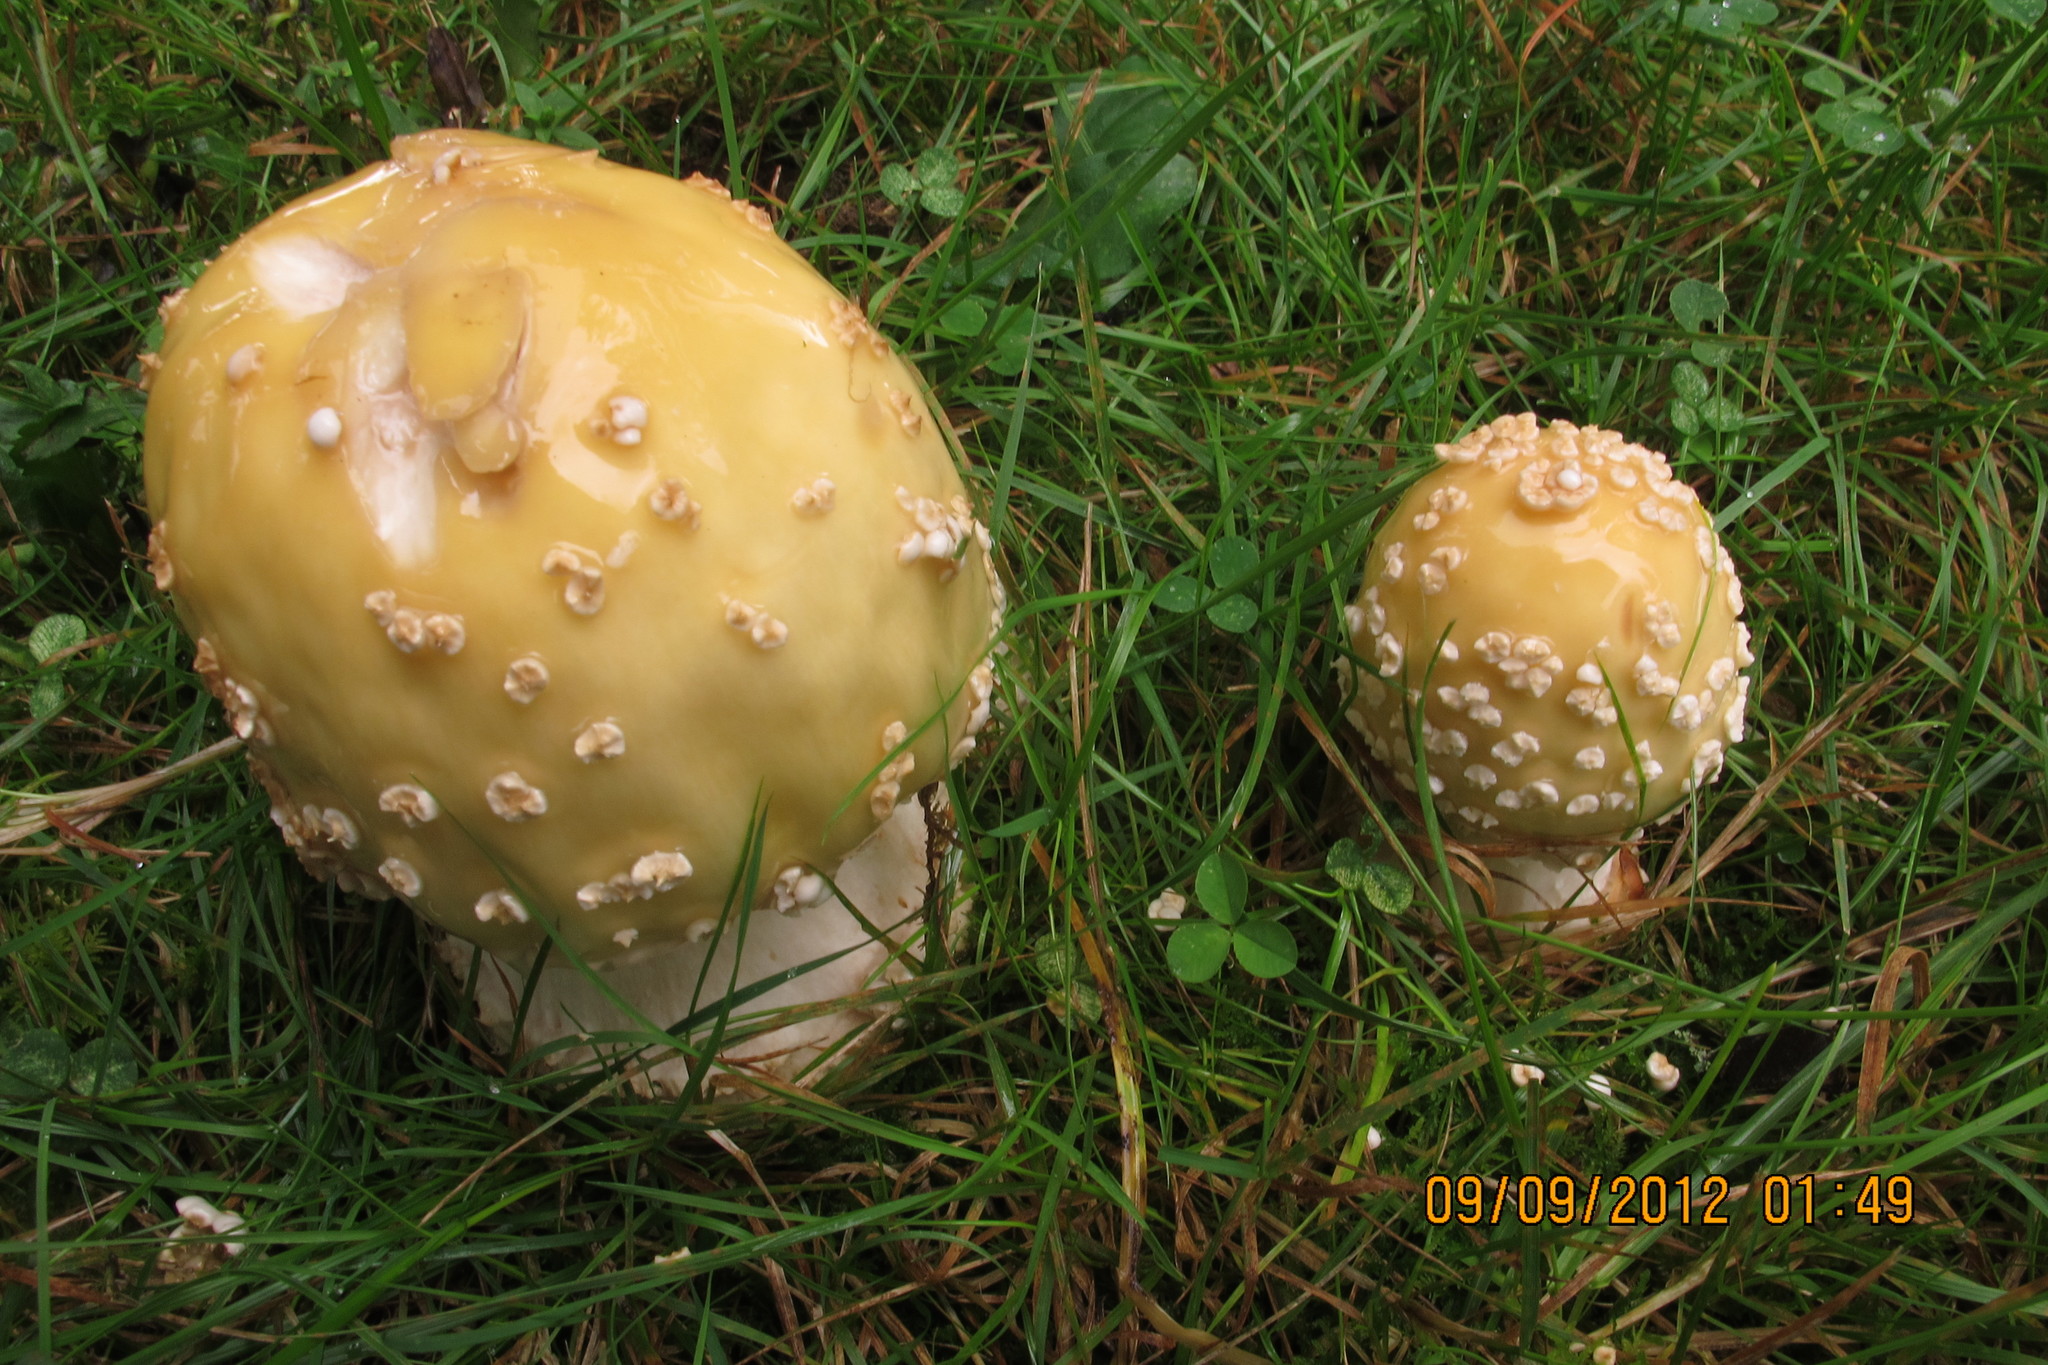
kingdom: Fungi
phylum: Basidiomycota
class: Agaricomycetes
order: Agaricales
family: Amanitaceae
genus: Amanita
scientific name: Amanita velatipes
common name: Great funnel-veil amanita
